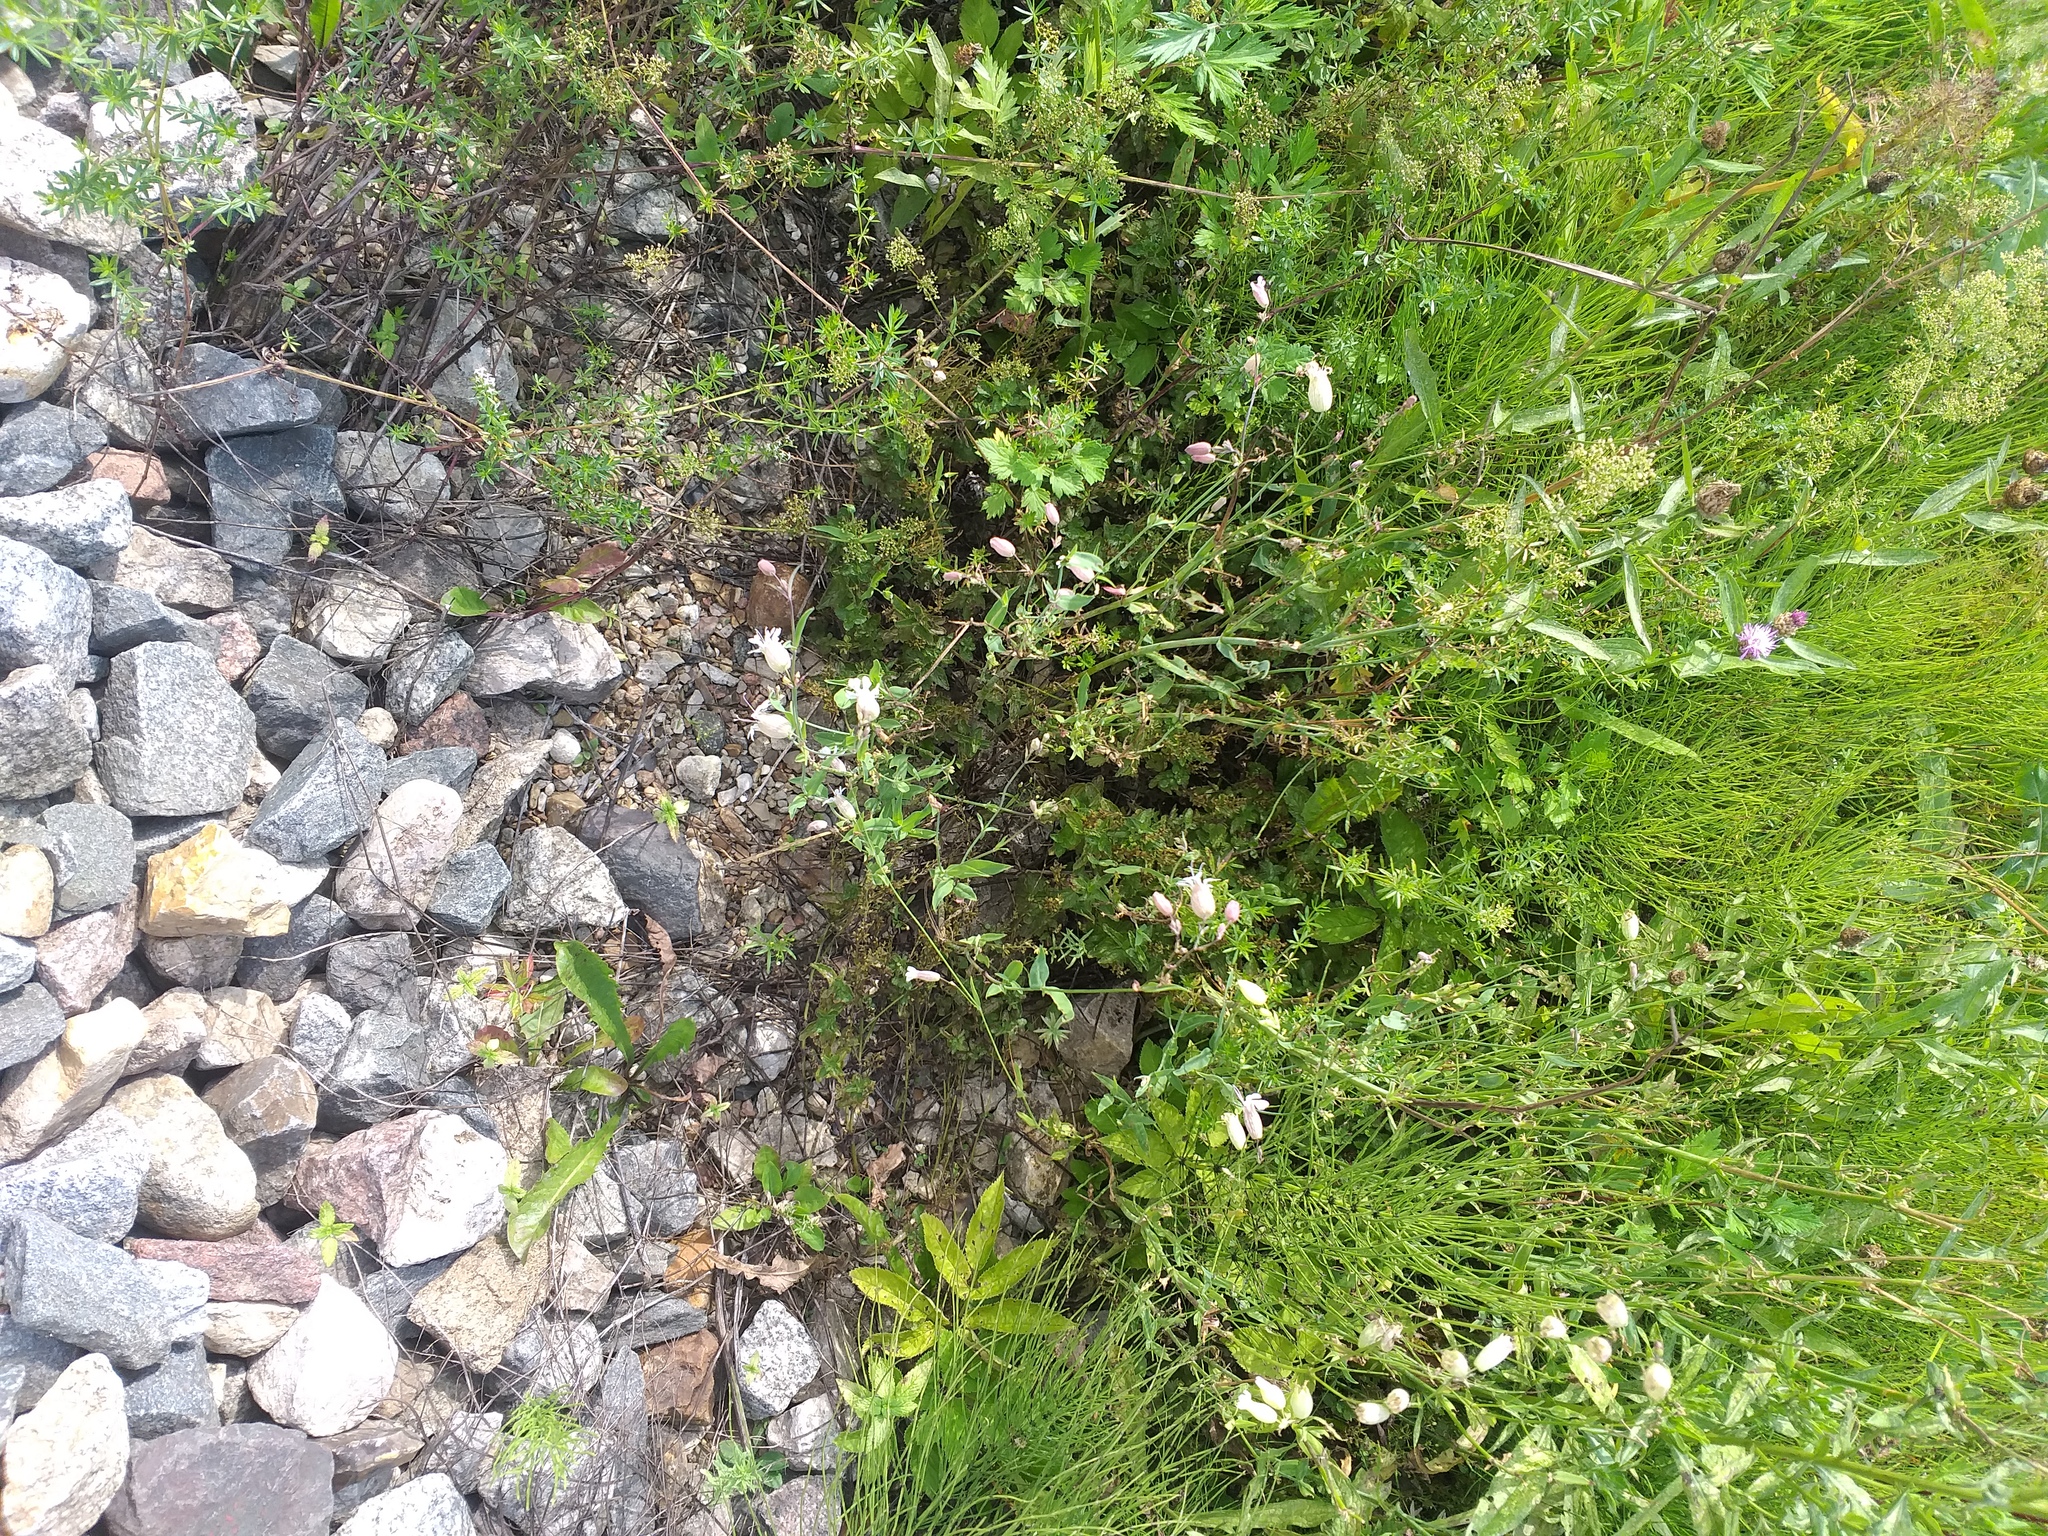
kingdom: Plantae
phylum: Tracheophyta
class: Magnoliopsida
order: Caryophyllales
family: Caryophyllaceae
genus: Silene
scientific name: Silene vulgaris
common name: Bladder campion
